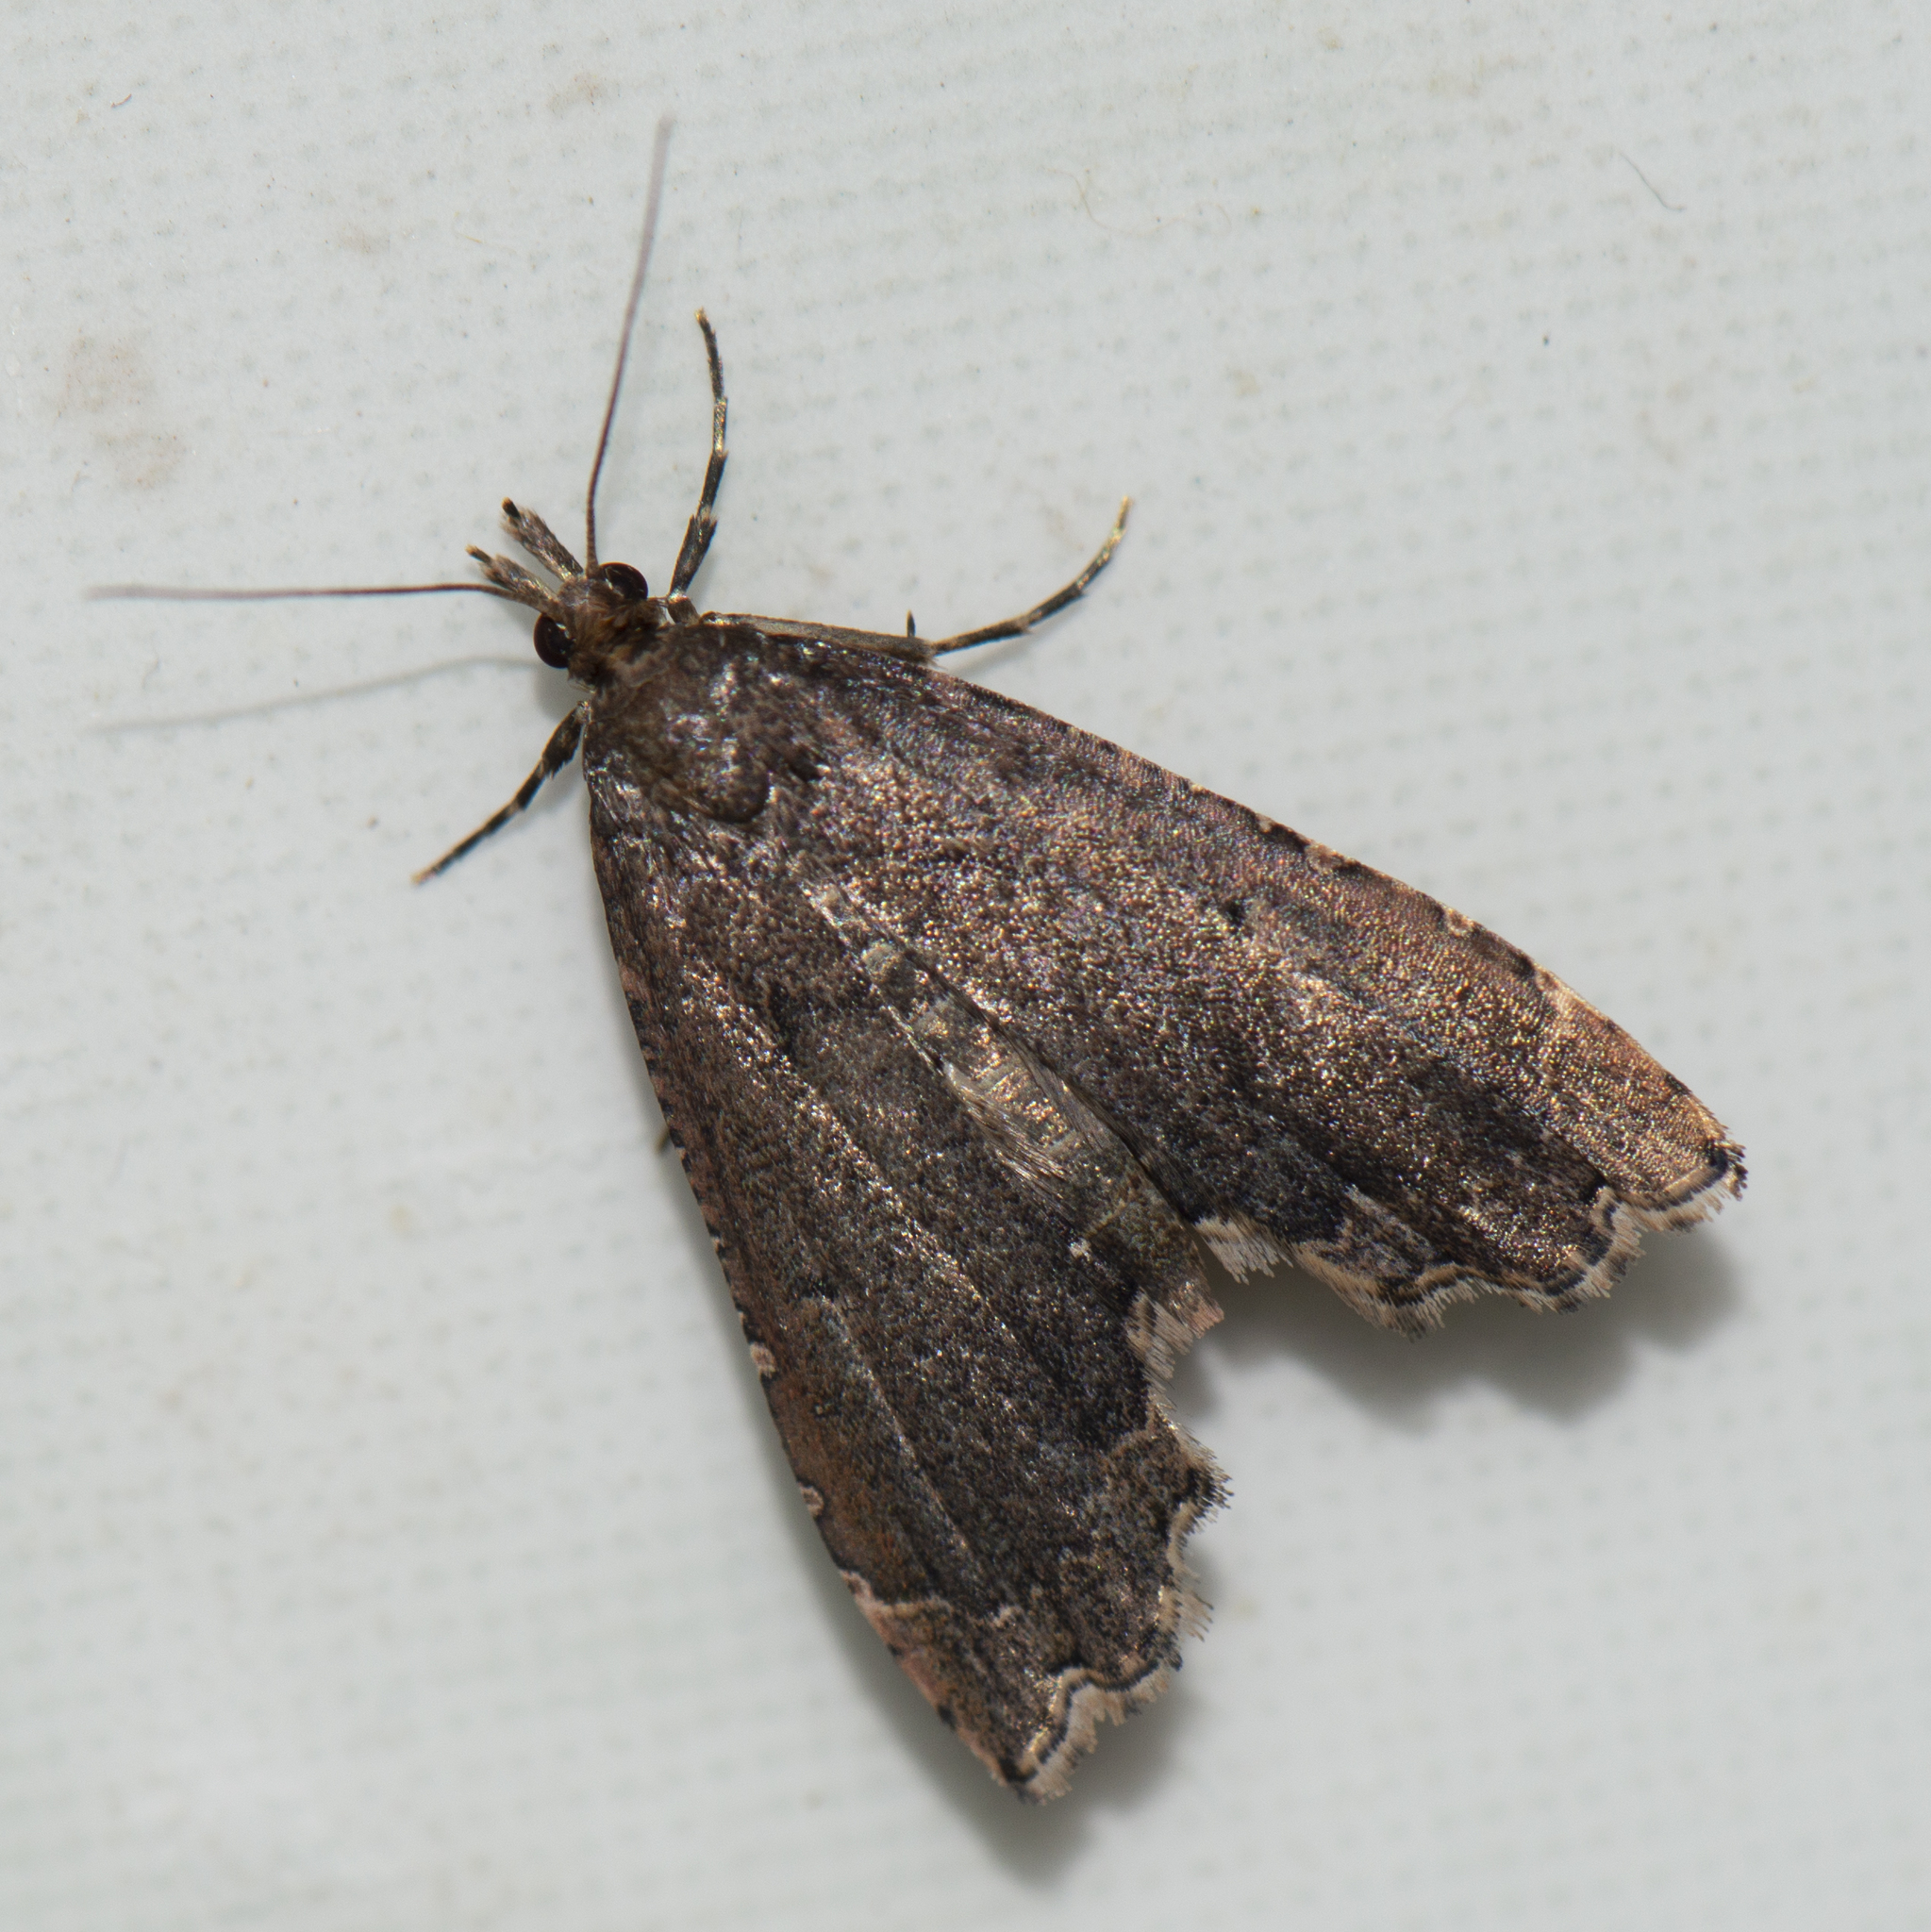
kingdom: Animalia
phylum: Arthropoda
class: Insecta
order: Lepidoptera
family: Crambidae
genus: Diplopseustis
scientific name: Diplopseustis perieresalis
